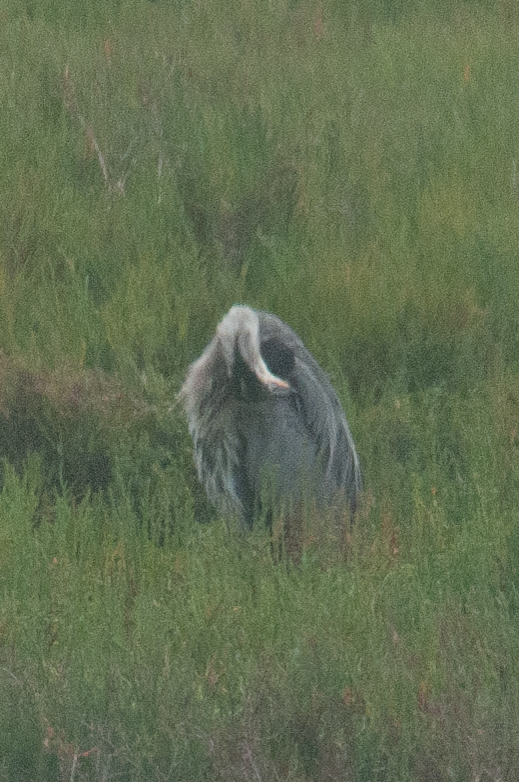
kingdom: Animalia
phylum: Chordata
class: Aves
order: Pelecaniformes
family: Ardeidae
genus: Ardea
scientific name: Ardea herodias
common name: Great blue heron
